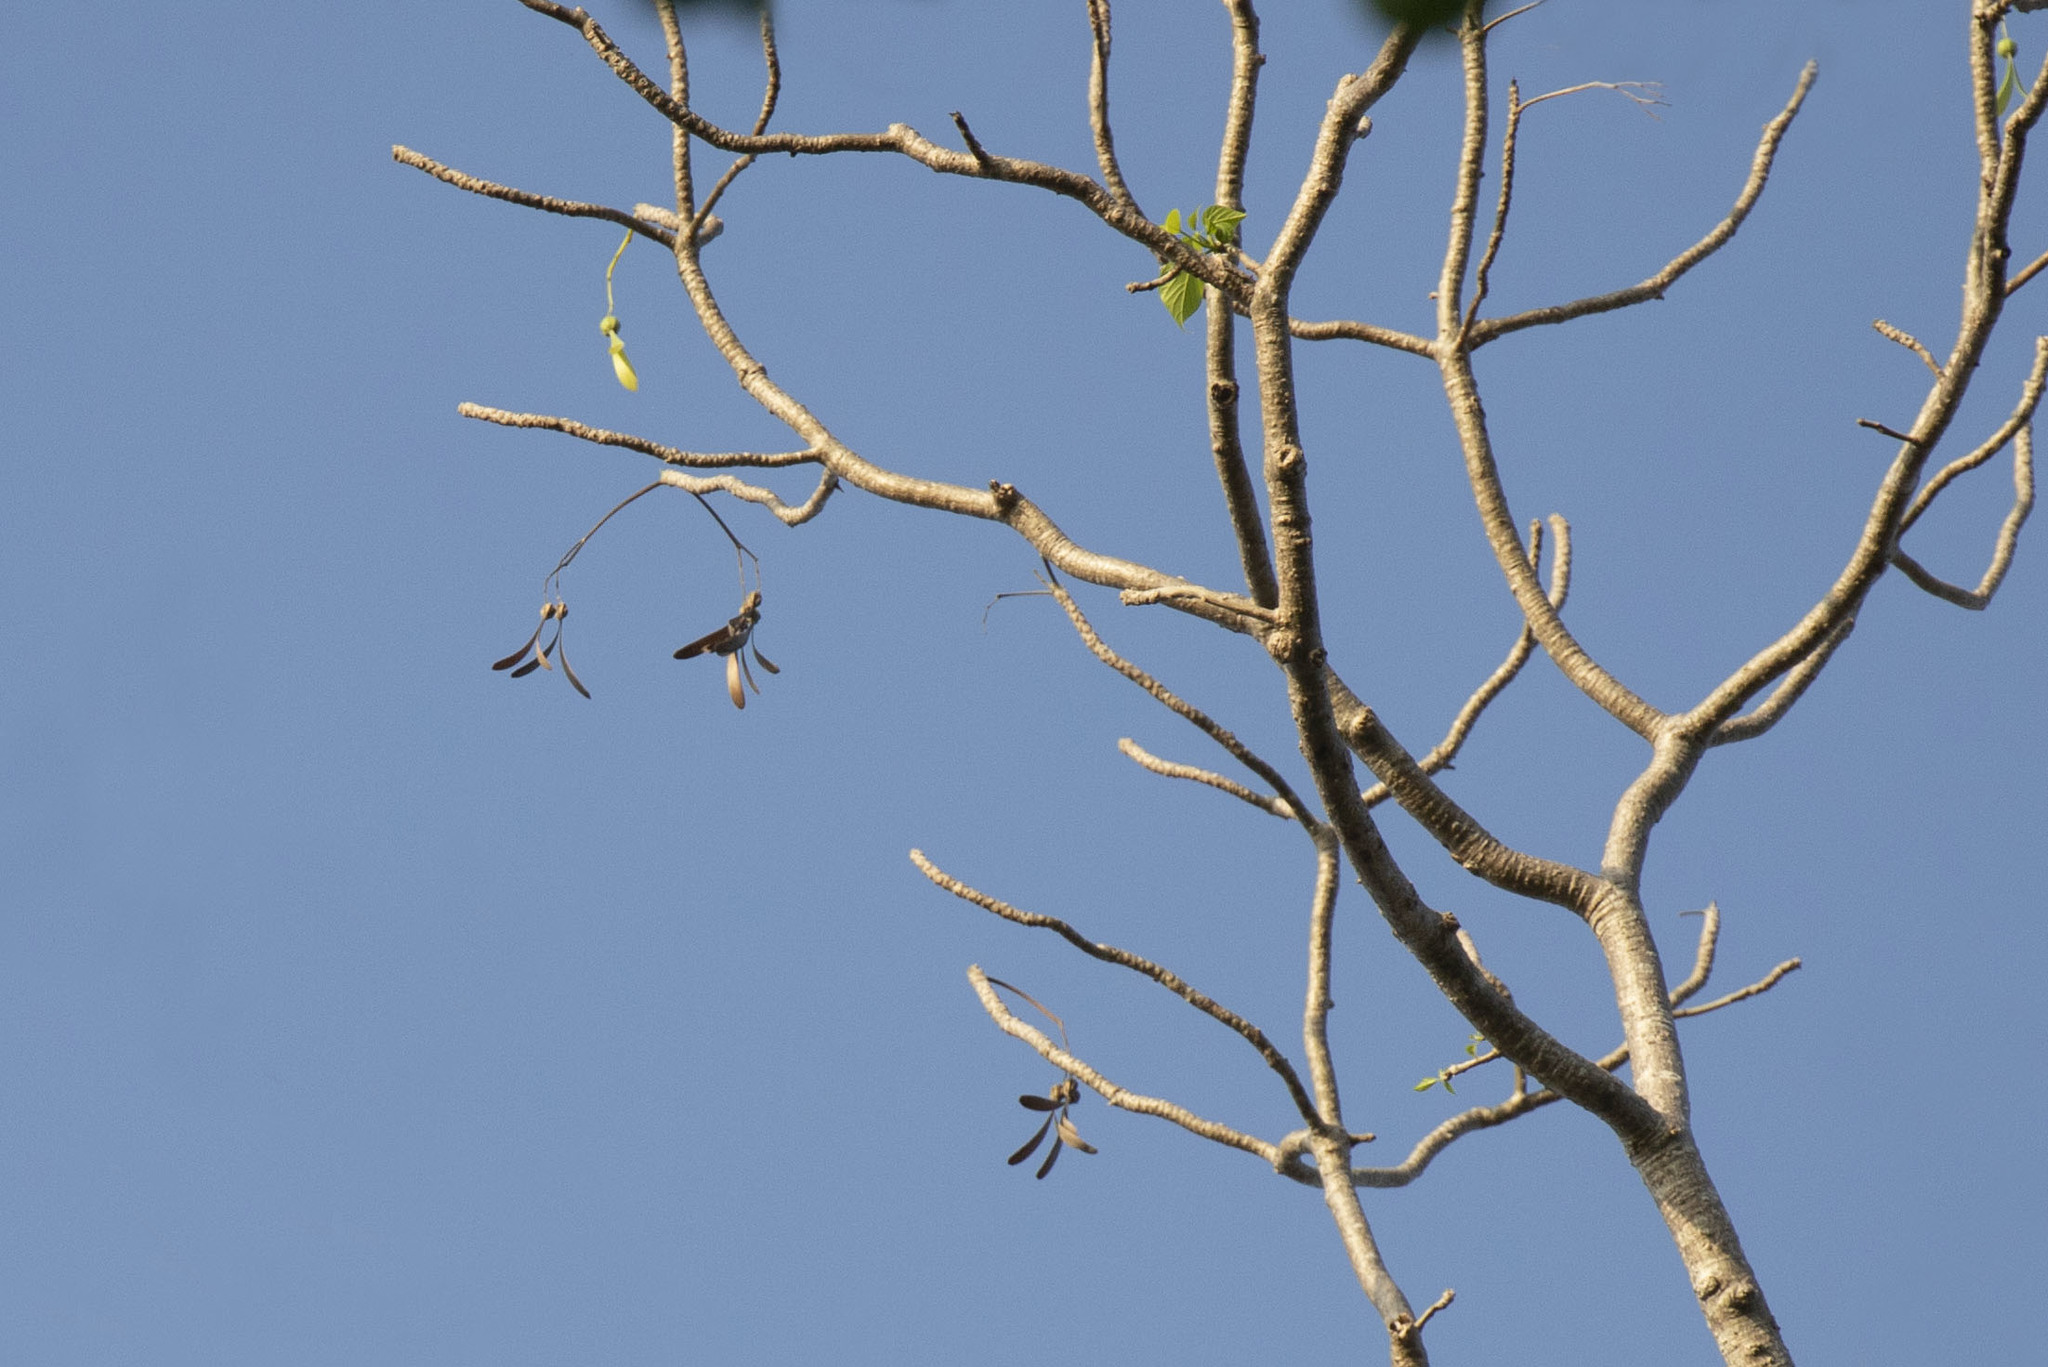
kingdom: Plantae
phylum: Tracheophyta
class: Magnoliopsida
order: Laurales
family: Hernandiaceae
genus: Gyrocarpus
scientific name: Gyrocarpus americanus
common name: Gyro damson
